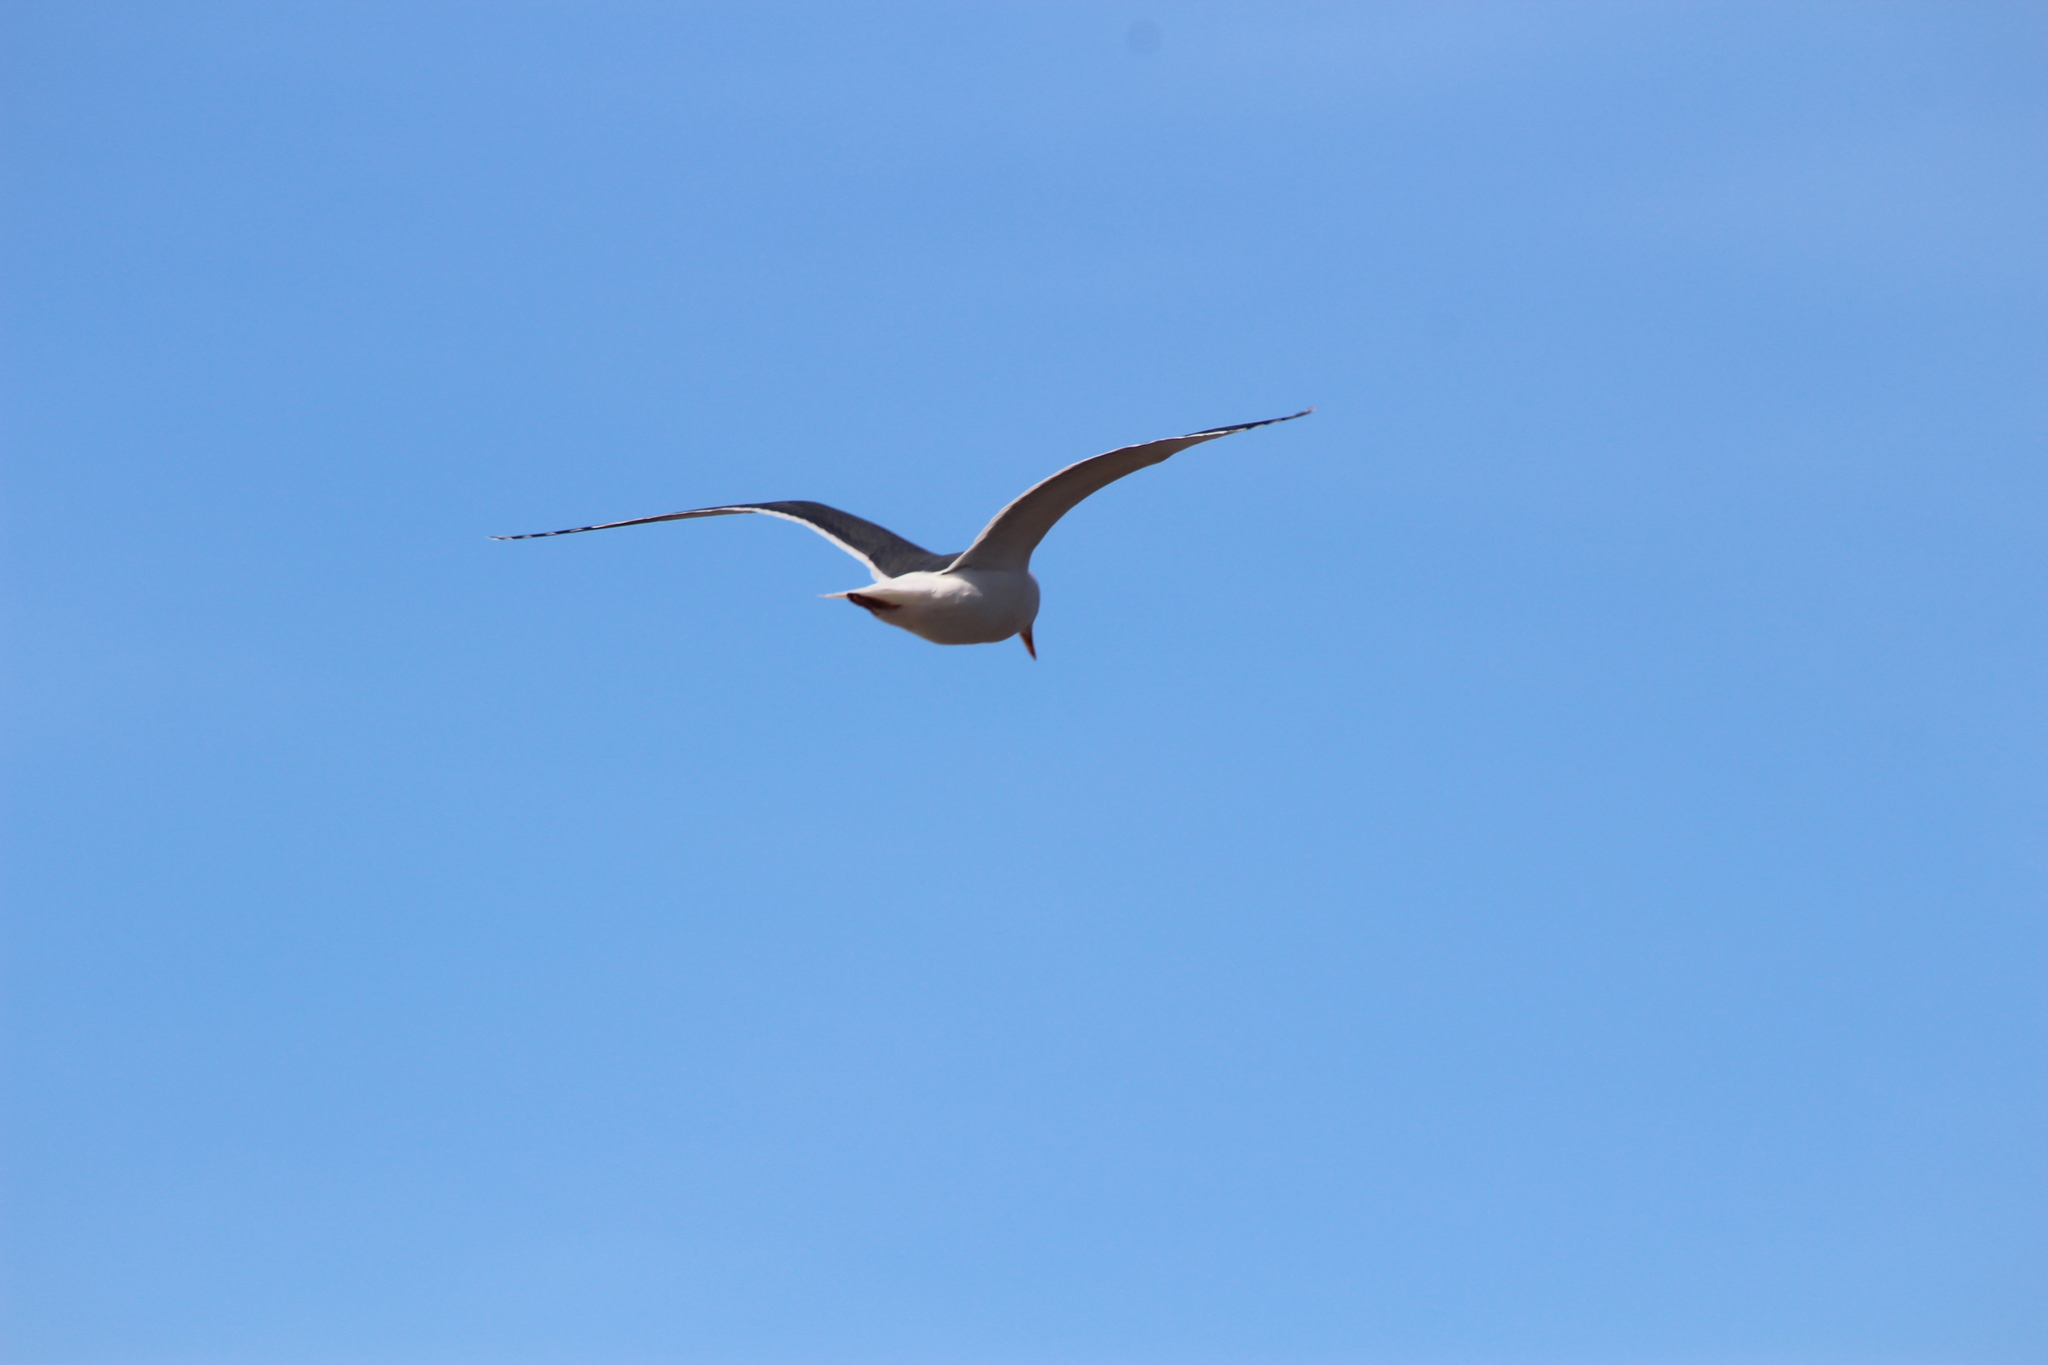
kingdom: Animalia
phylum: Chordata
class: Aves
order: Charadriiformes
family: Laridae
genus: Larus
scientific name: Larus occidentalis
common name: Western gull
